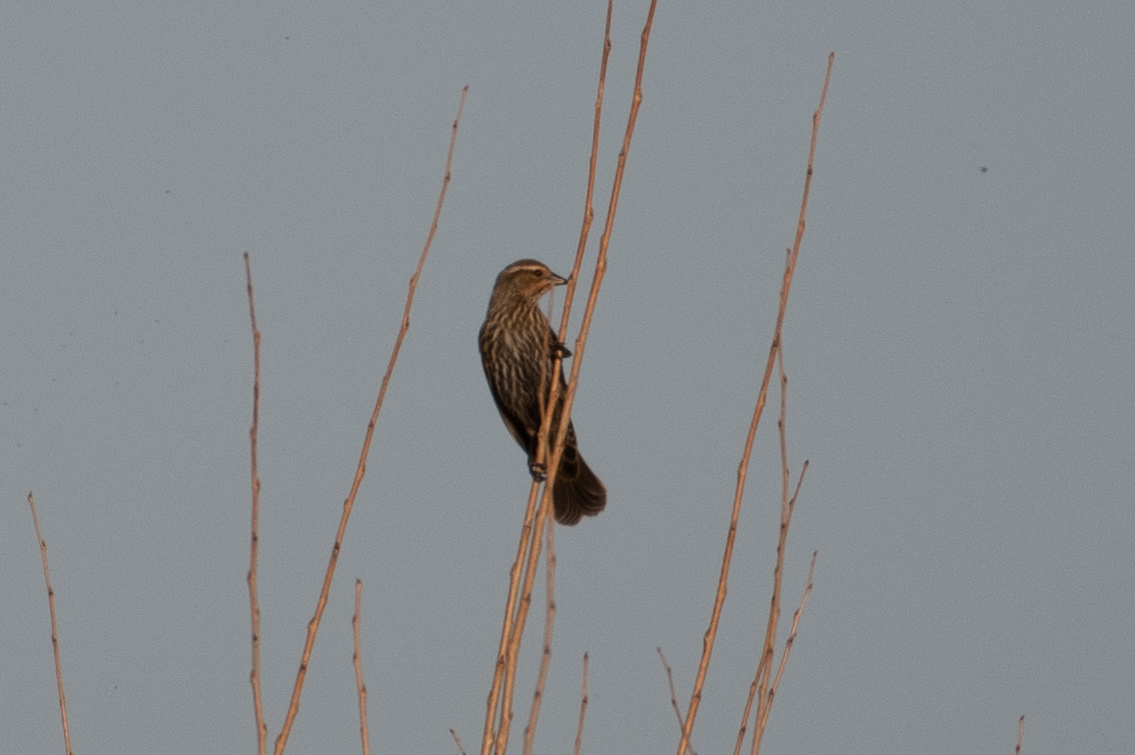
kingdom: Animalia
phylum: Chordata
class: Aves
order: Passeriformes
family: Icteridae
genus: Agelaius
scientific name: Agelaius phoeniceus
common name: Red-winged blackbird
